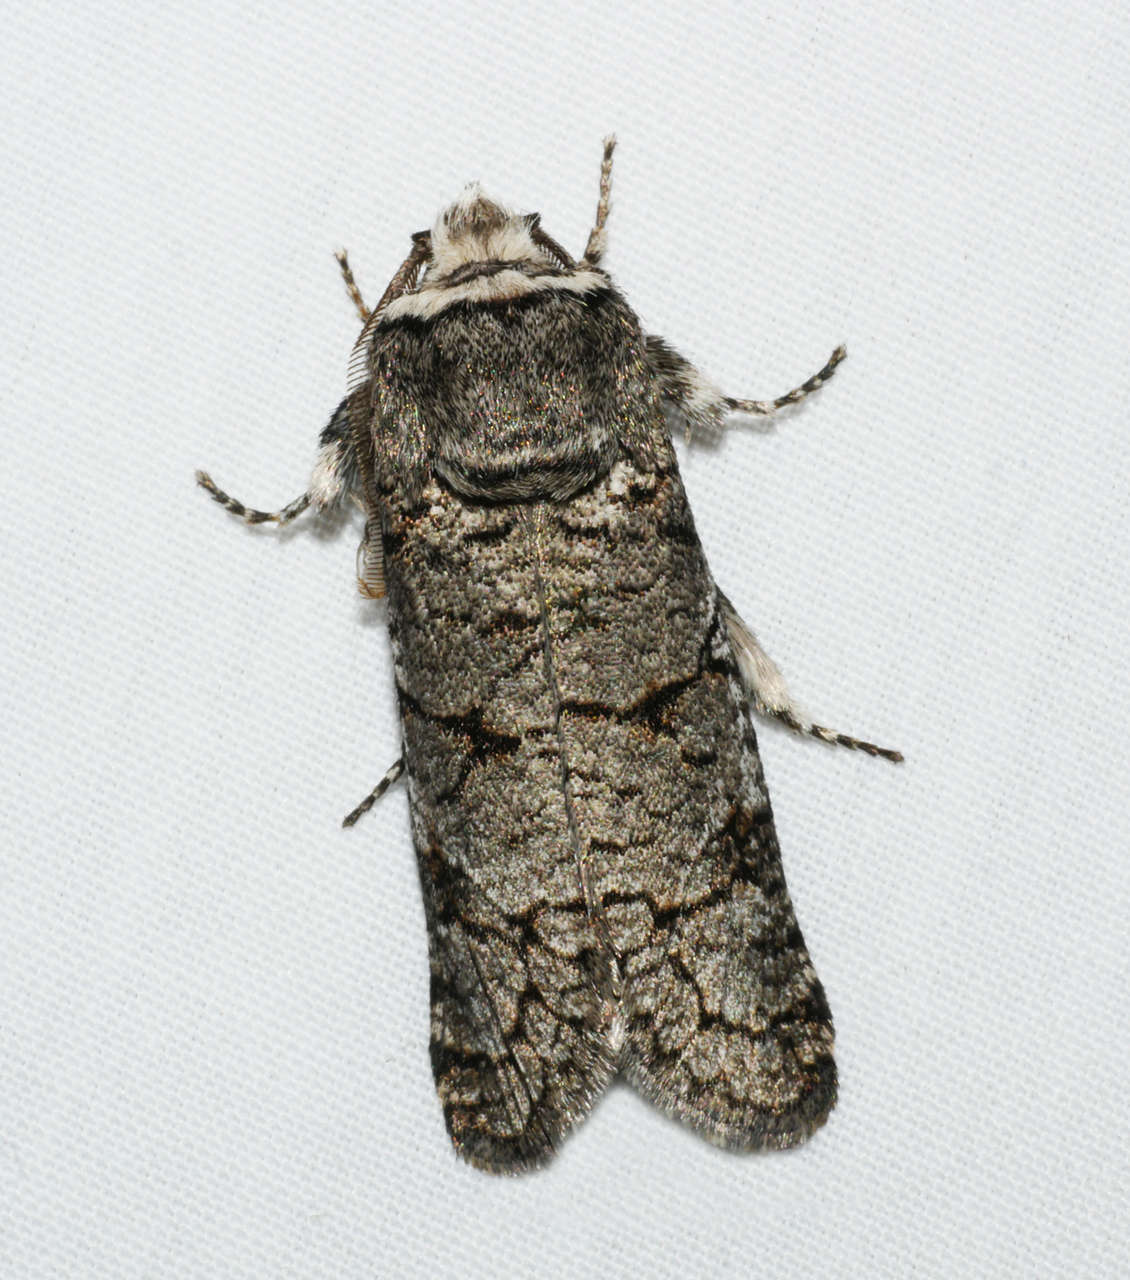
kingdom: Animalia
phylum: Arthropoda
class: Insecta
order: Lepidoptera
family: Cossidae
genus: Zyganisus
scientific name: Zyganisus propedia
